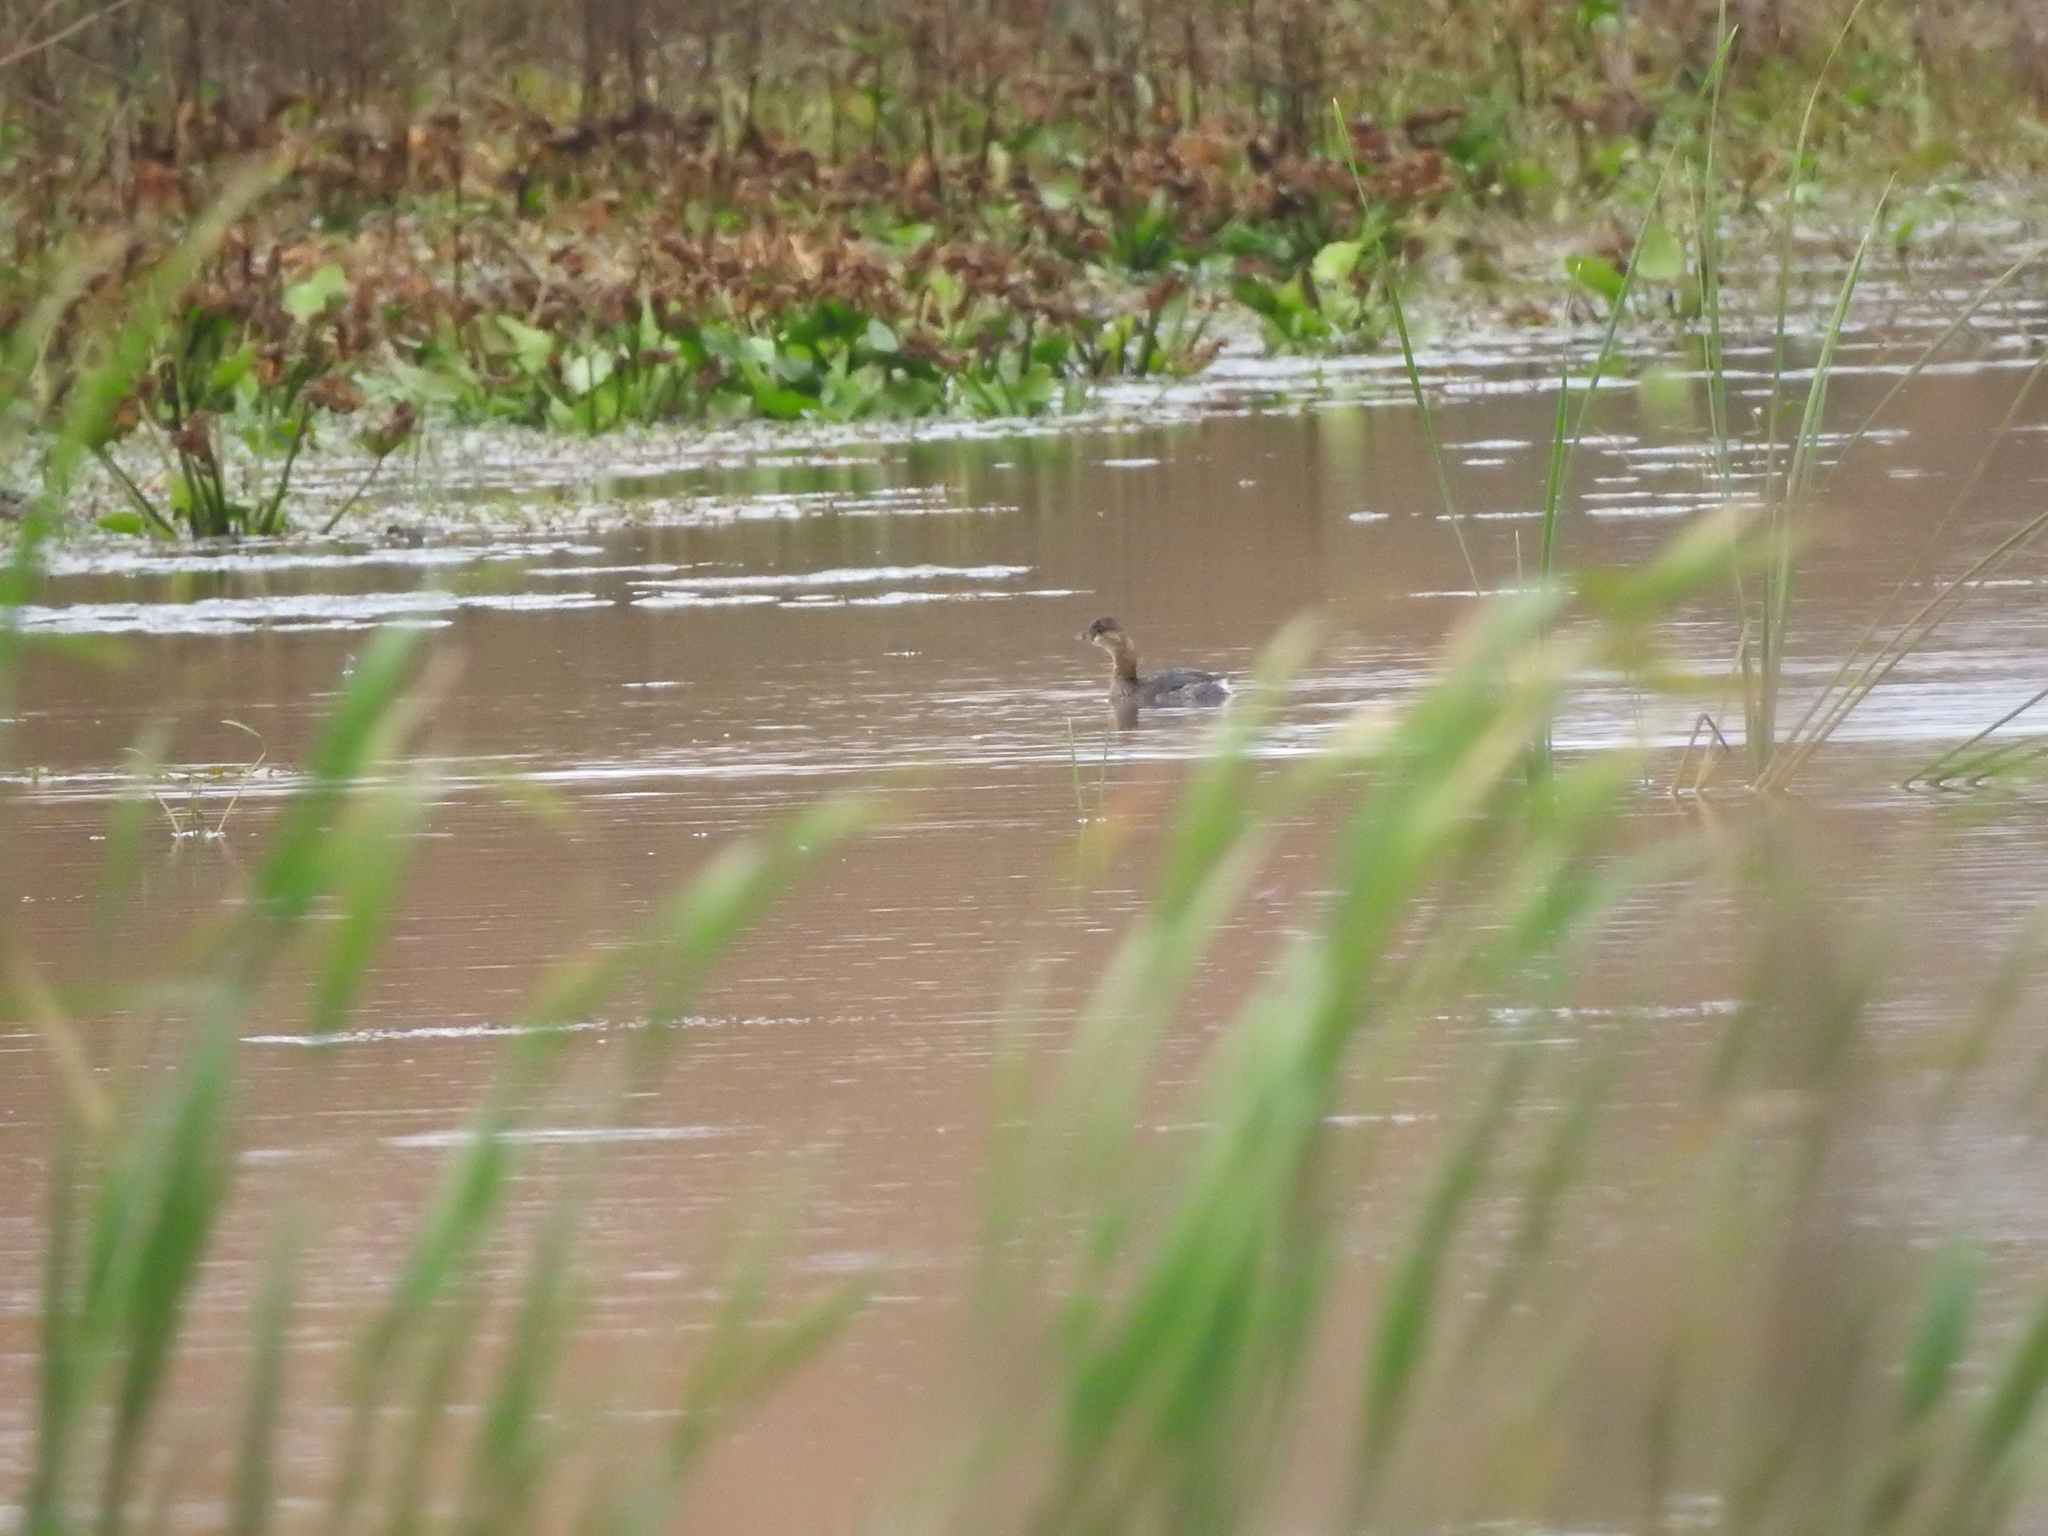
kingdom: Animalia
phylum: Chordata
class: Aves
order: Podicipediformes
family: Podicipedidae
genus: Podilymbus
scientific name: Podilymbus podiceps
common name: Pied-billed grebe
